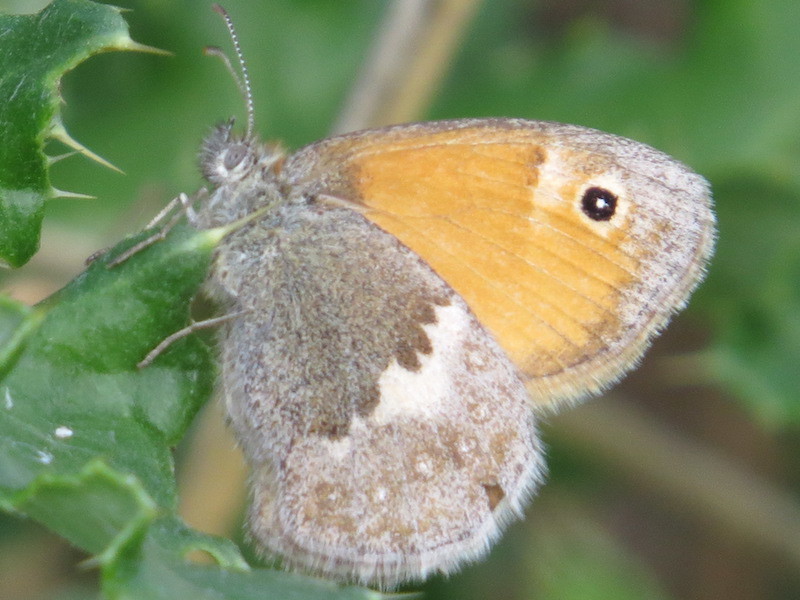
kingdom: Animalia
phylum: Arthropoda
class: Insecta
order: Lepidoptera
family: Nymphalidae
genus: Coenonympha
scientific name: Coenonympha pamphilus
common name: Small heath
